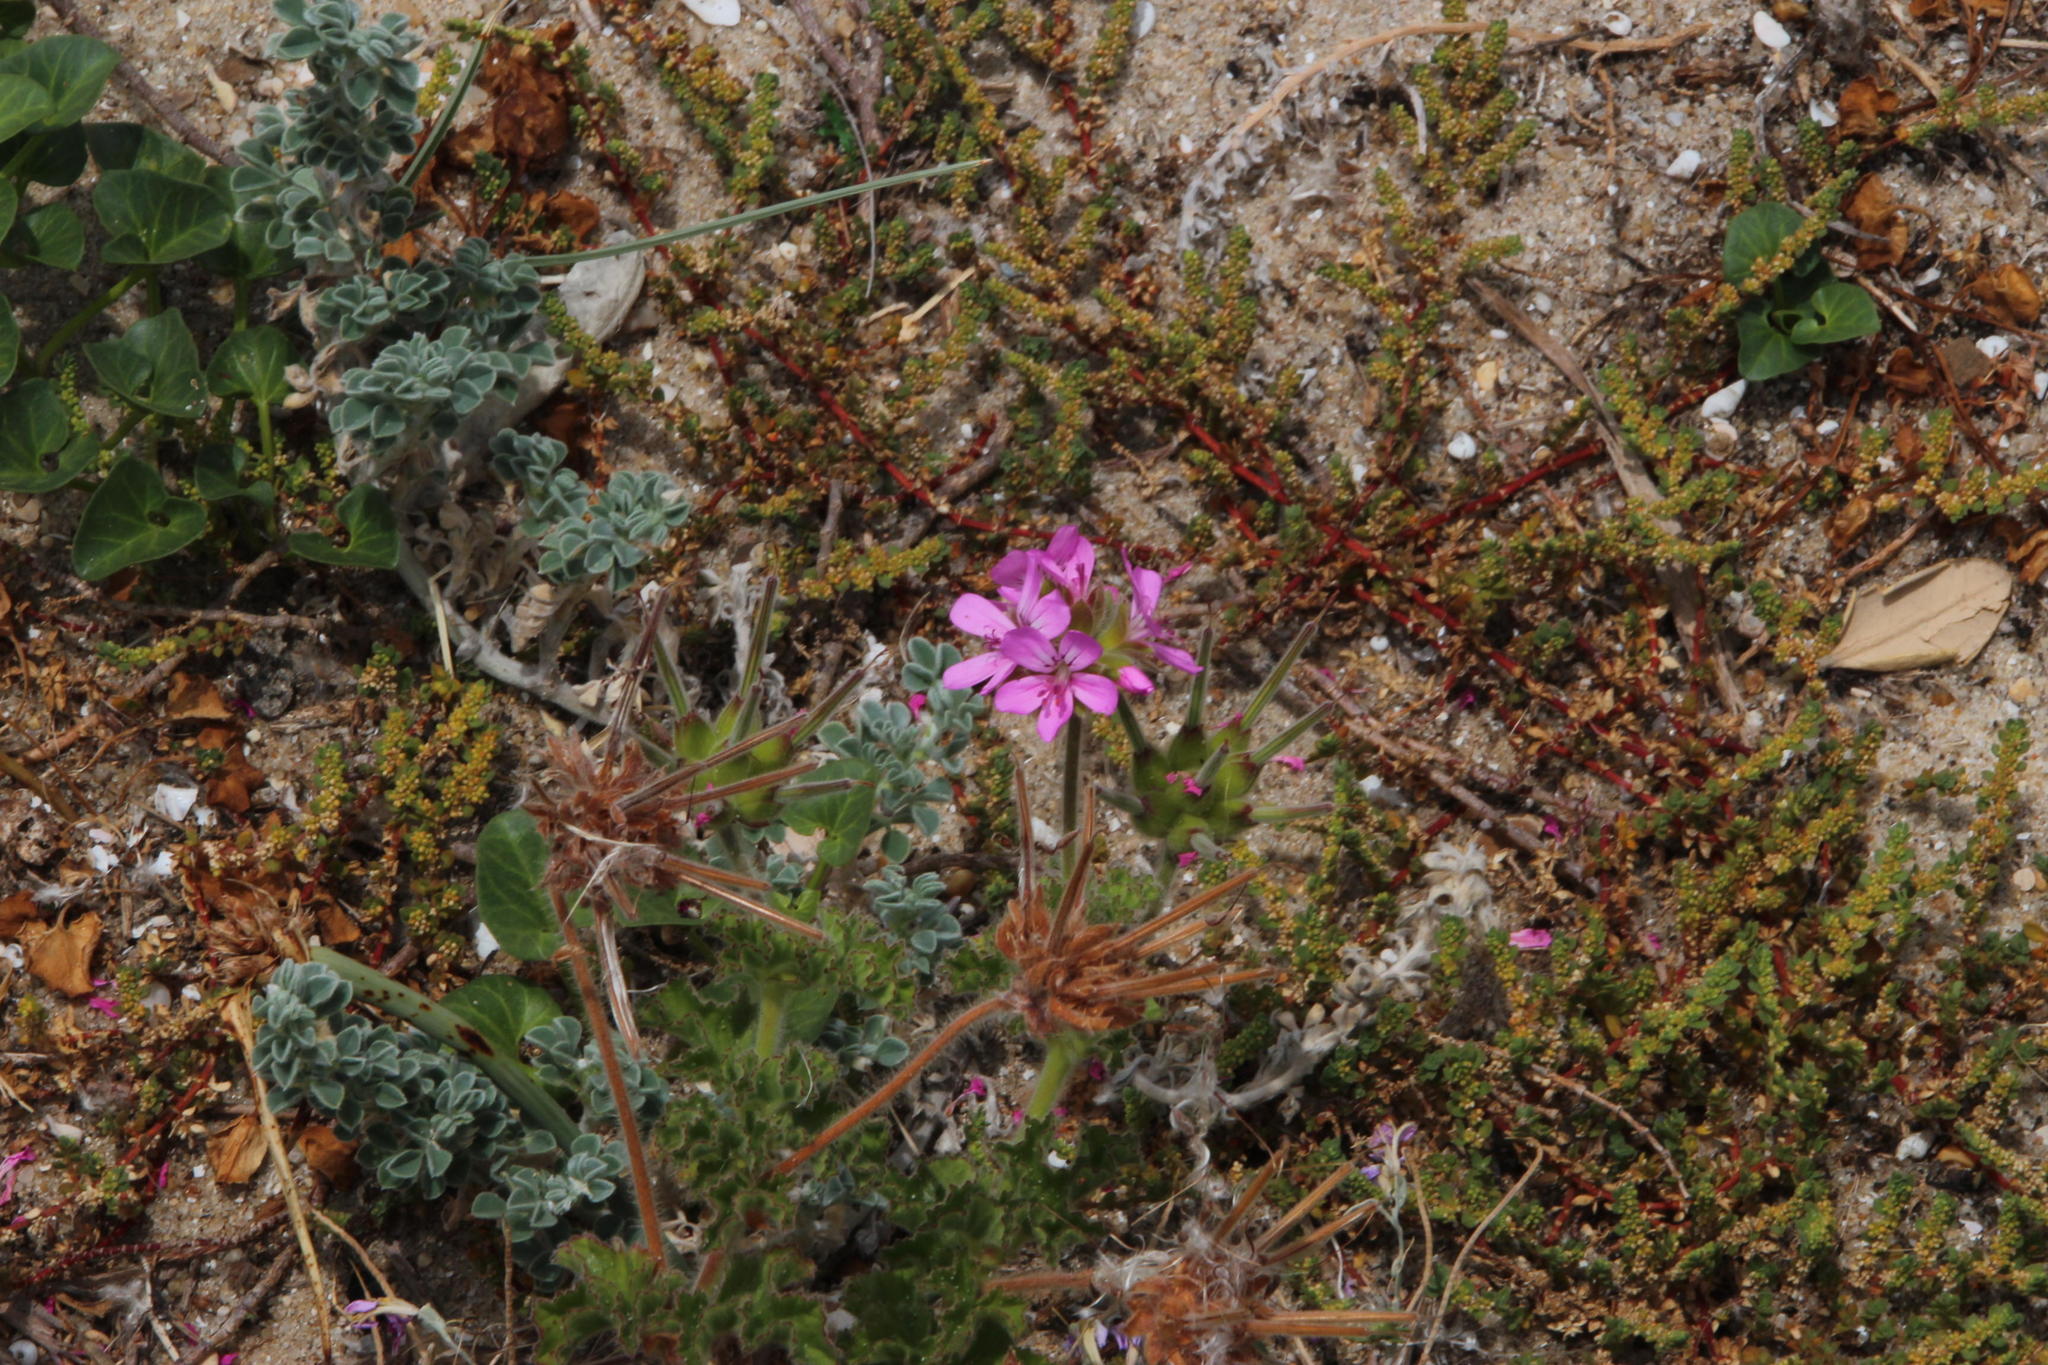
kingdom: Plantae
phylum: Tracheophyta
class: Magnoliopsida
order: Geraniales
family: Geraniaceae
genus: Pelargonium
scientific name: Pelargonium capitatum
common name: Rose scented geranium
